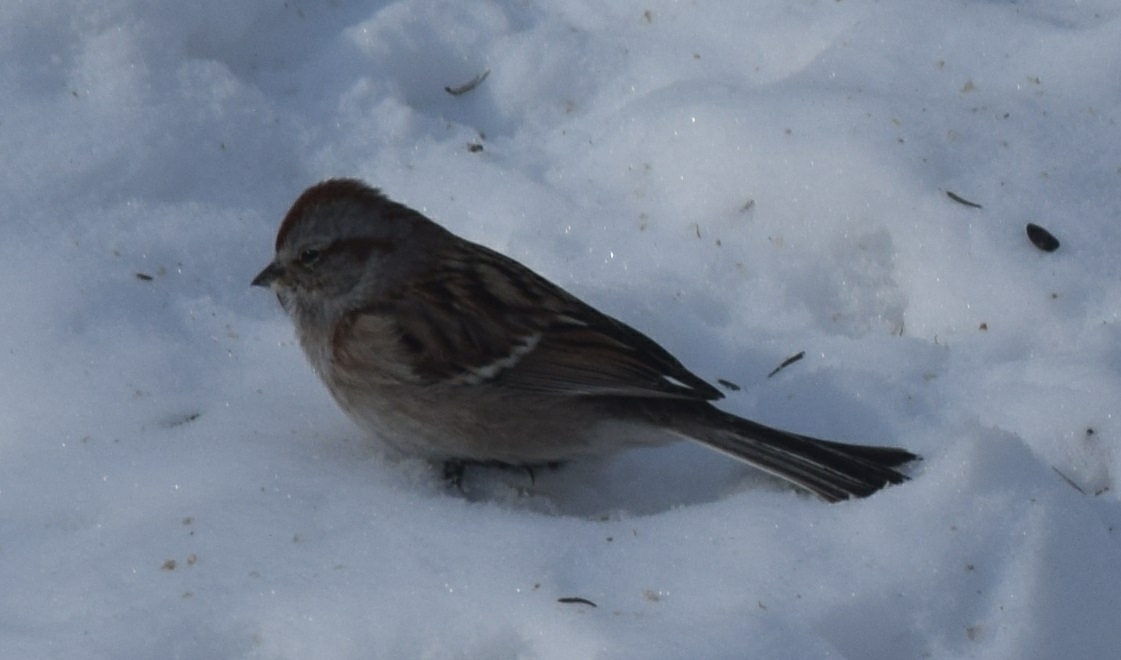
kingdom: Animalia
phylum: Chordata
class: Aves
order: Passeriformes
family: Passerellidae
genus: Spizelloides
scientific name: Spizelloides arborea
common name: American tree sparrow
